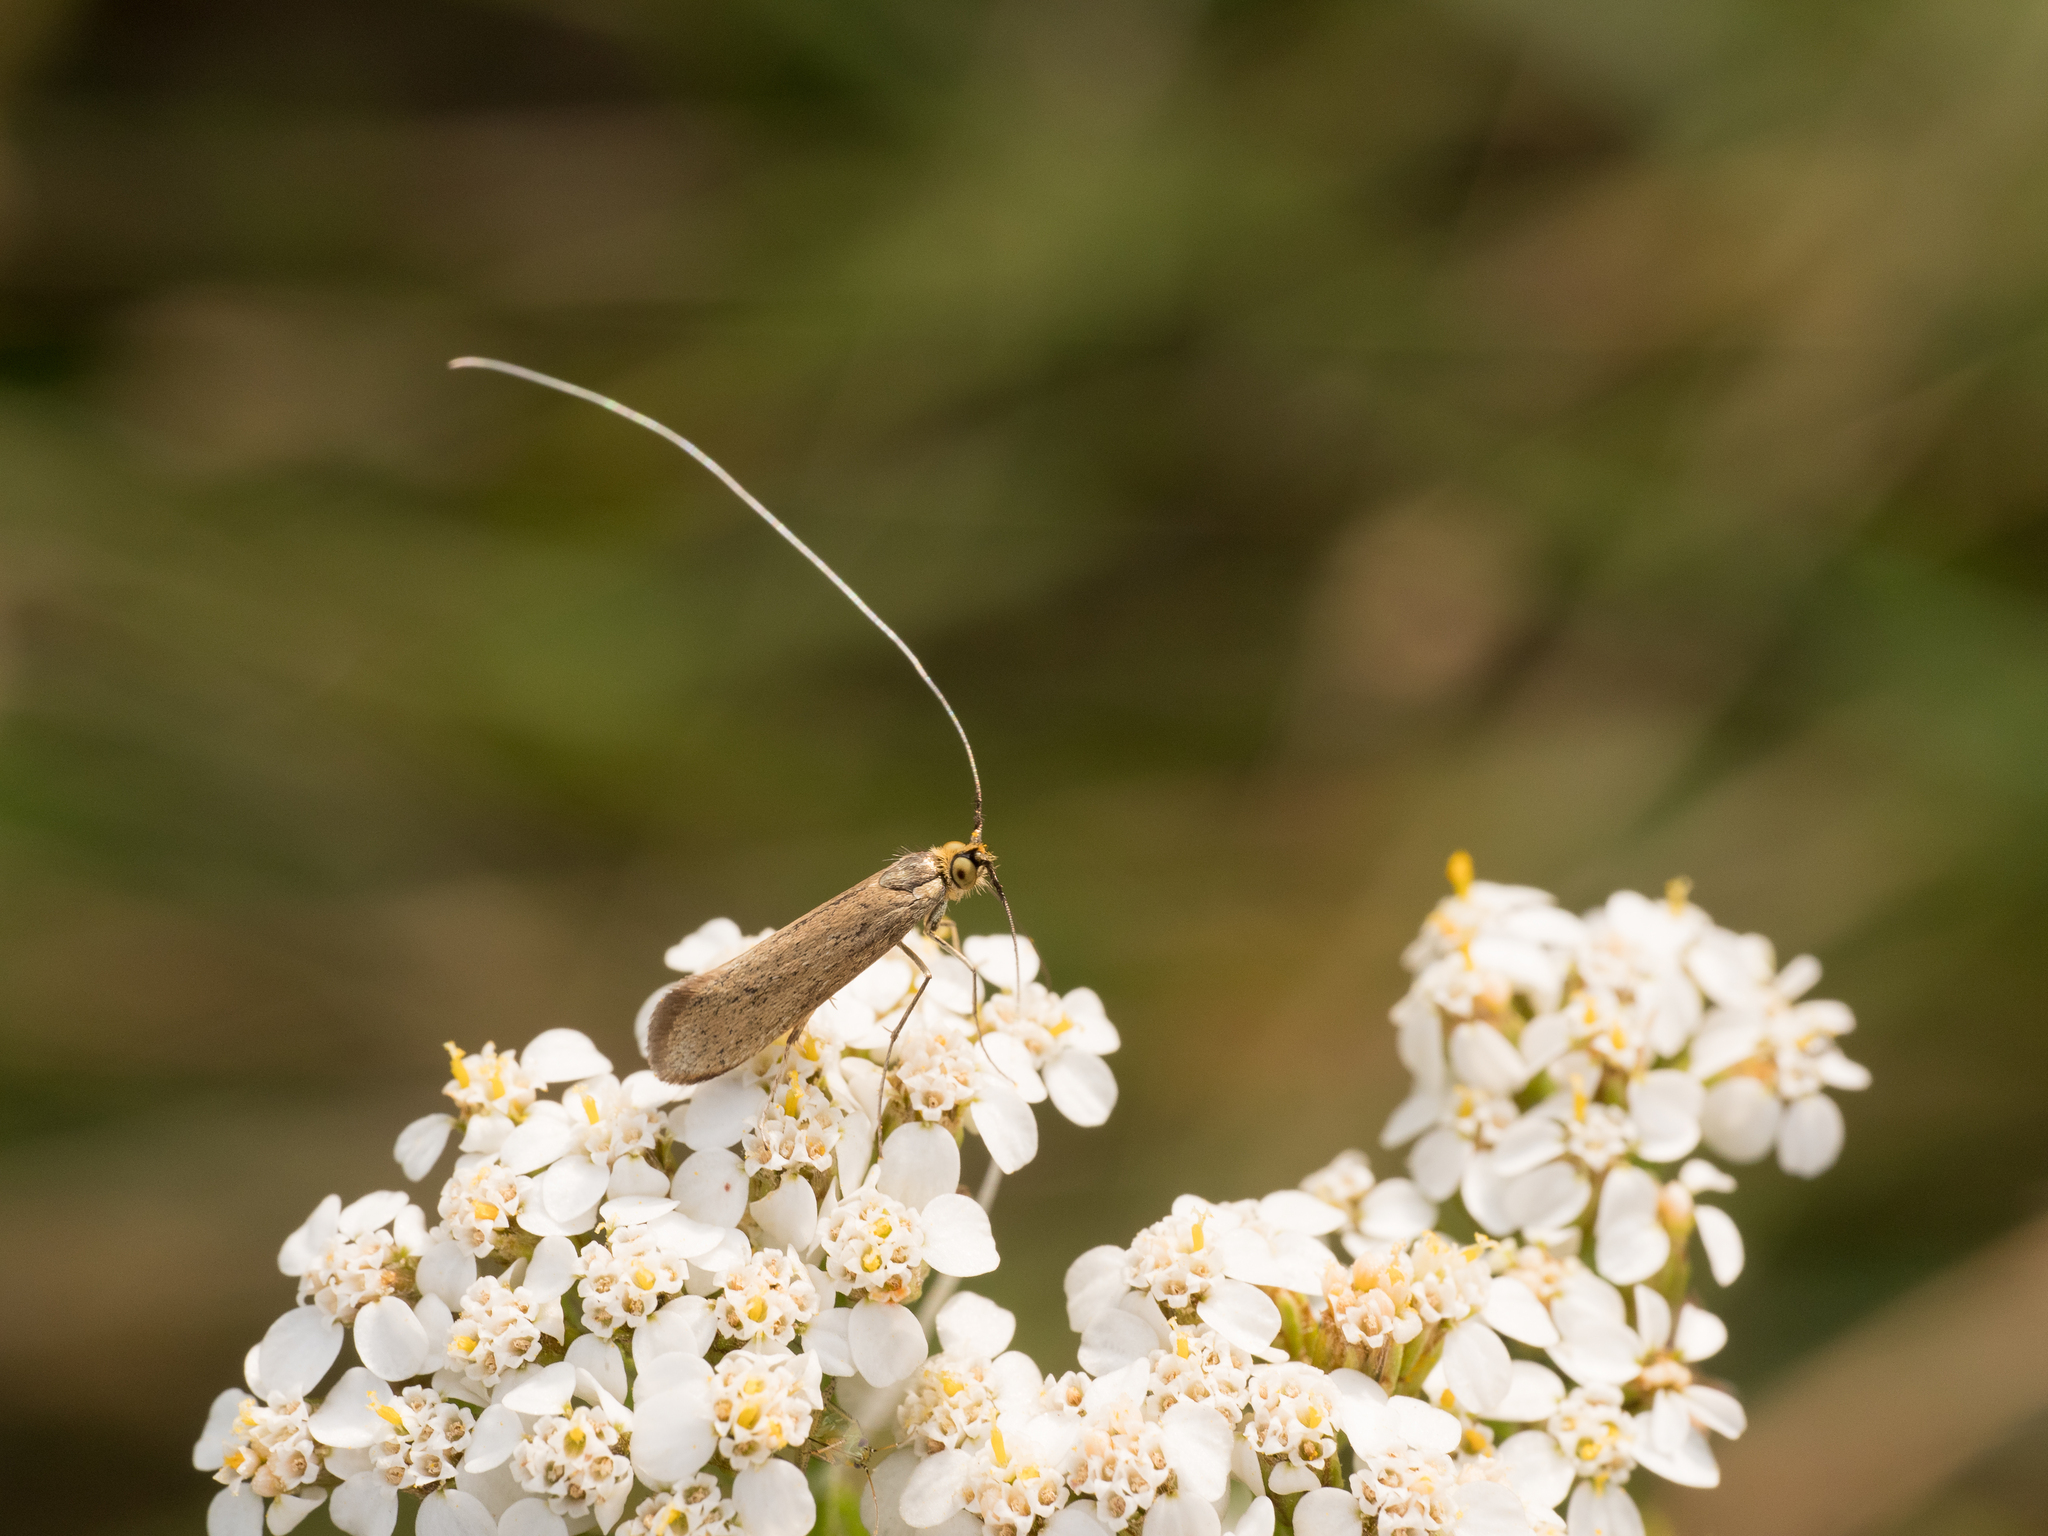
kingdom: Animalia
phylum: Arthropoda
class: Insecta
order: Lepidoptera
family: Adelidae
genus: Nemophora
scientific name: Nemophora metallica
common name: Brassy long-horn
